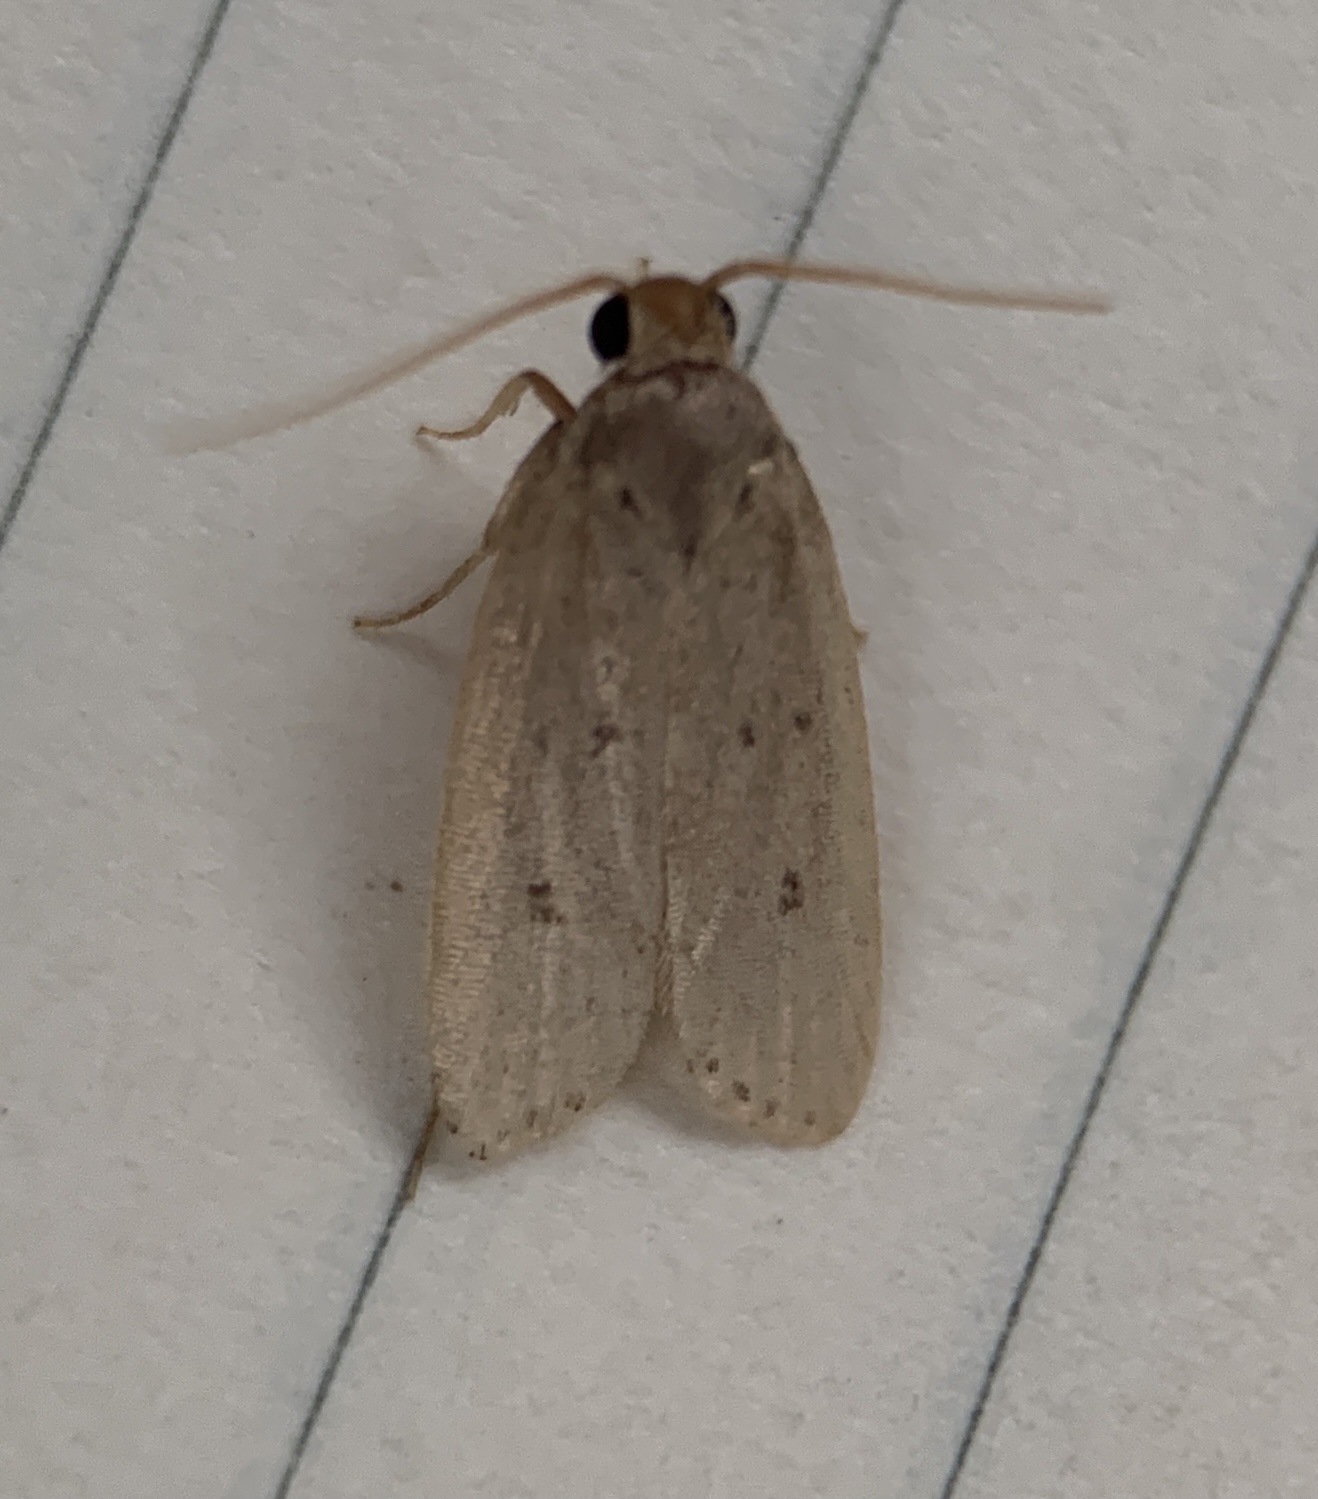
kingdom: Animalia
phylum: Arthropoda
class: Insecta
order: Lepidoptera
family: Autostichidae
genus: Autosticha
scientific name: Autosticha kyotensis
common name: Kyoto moth
